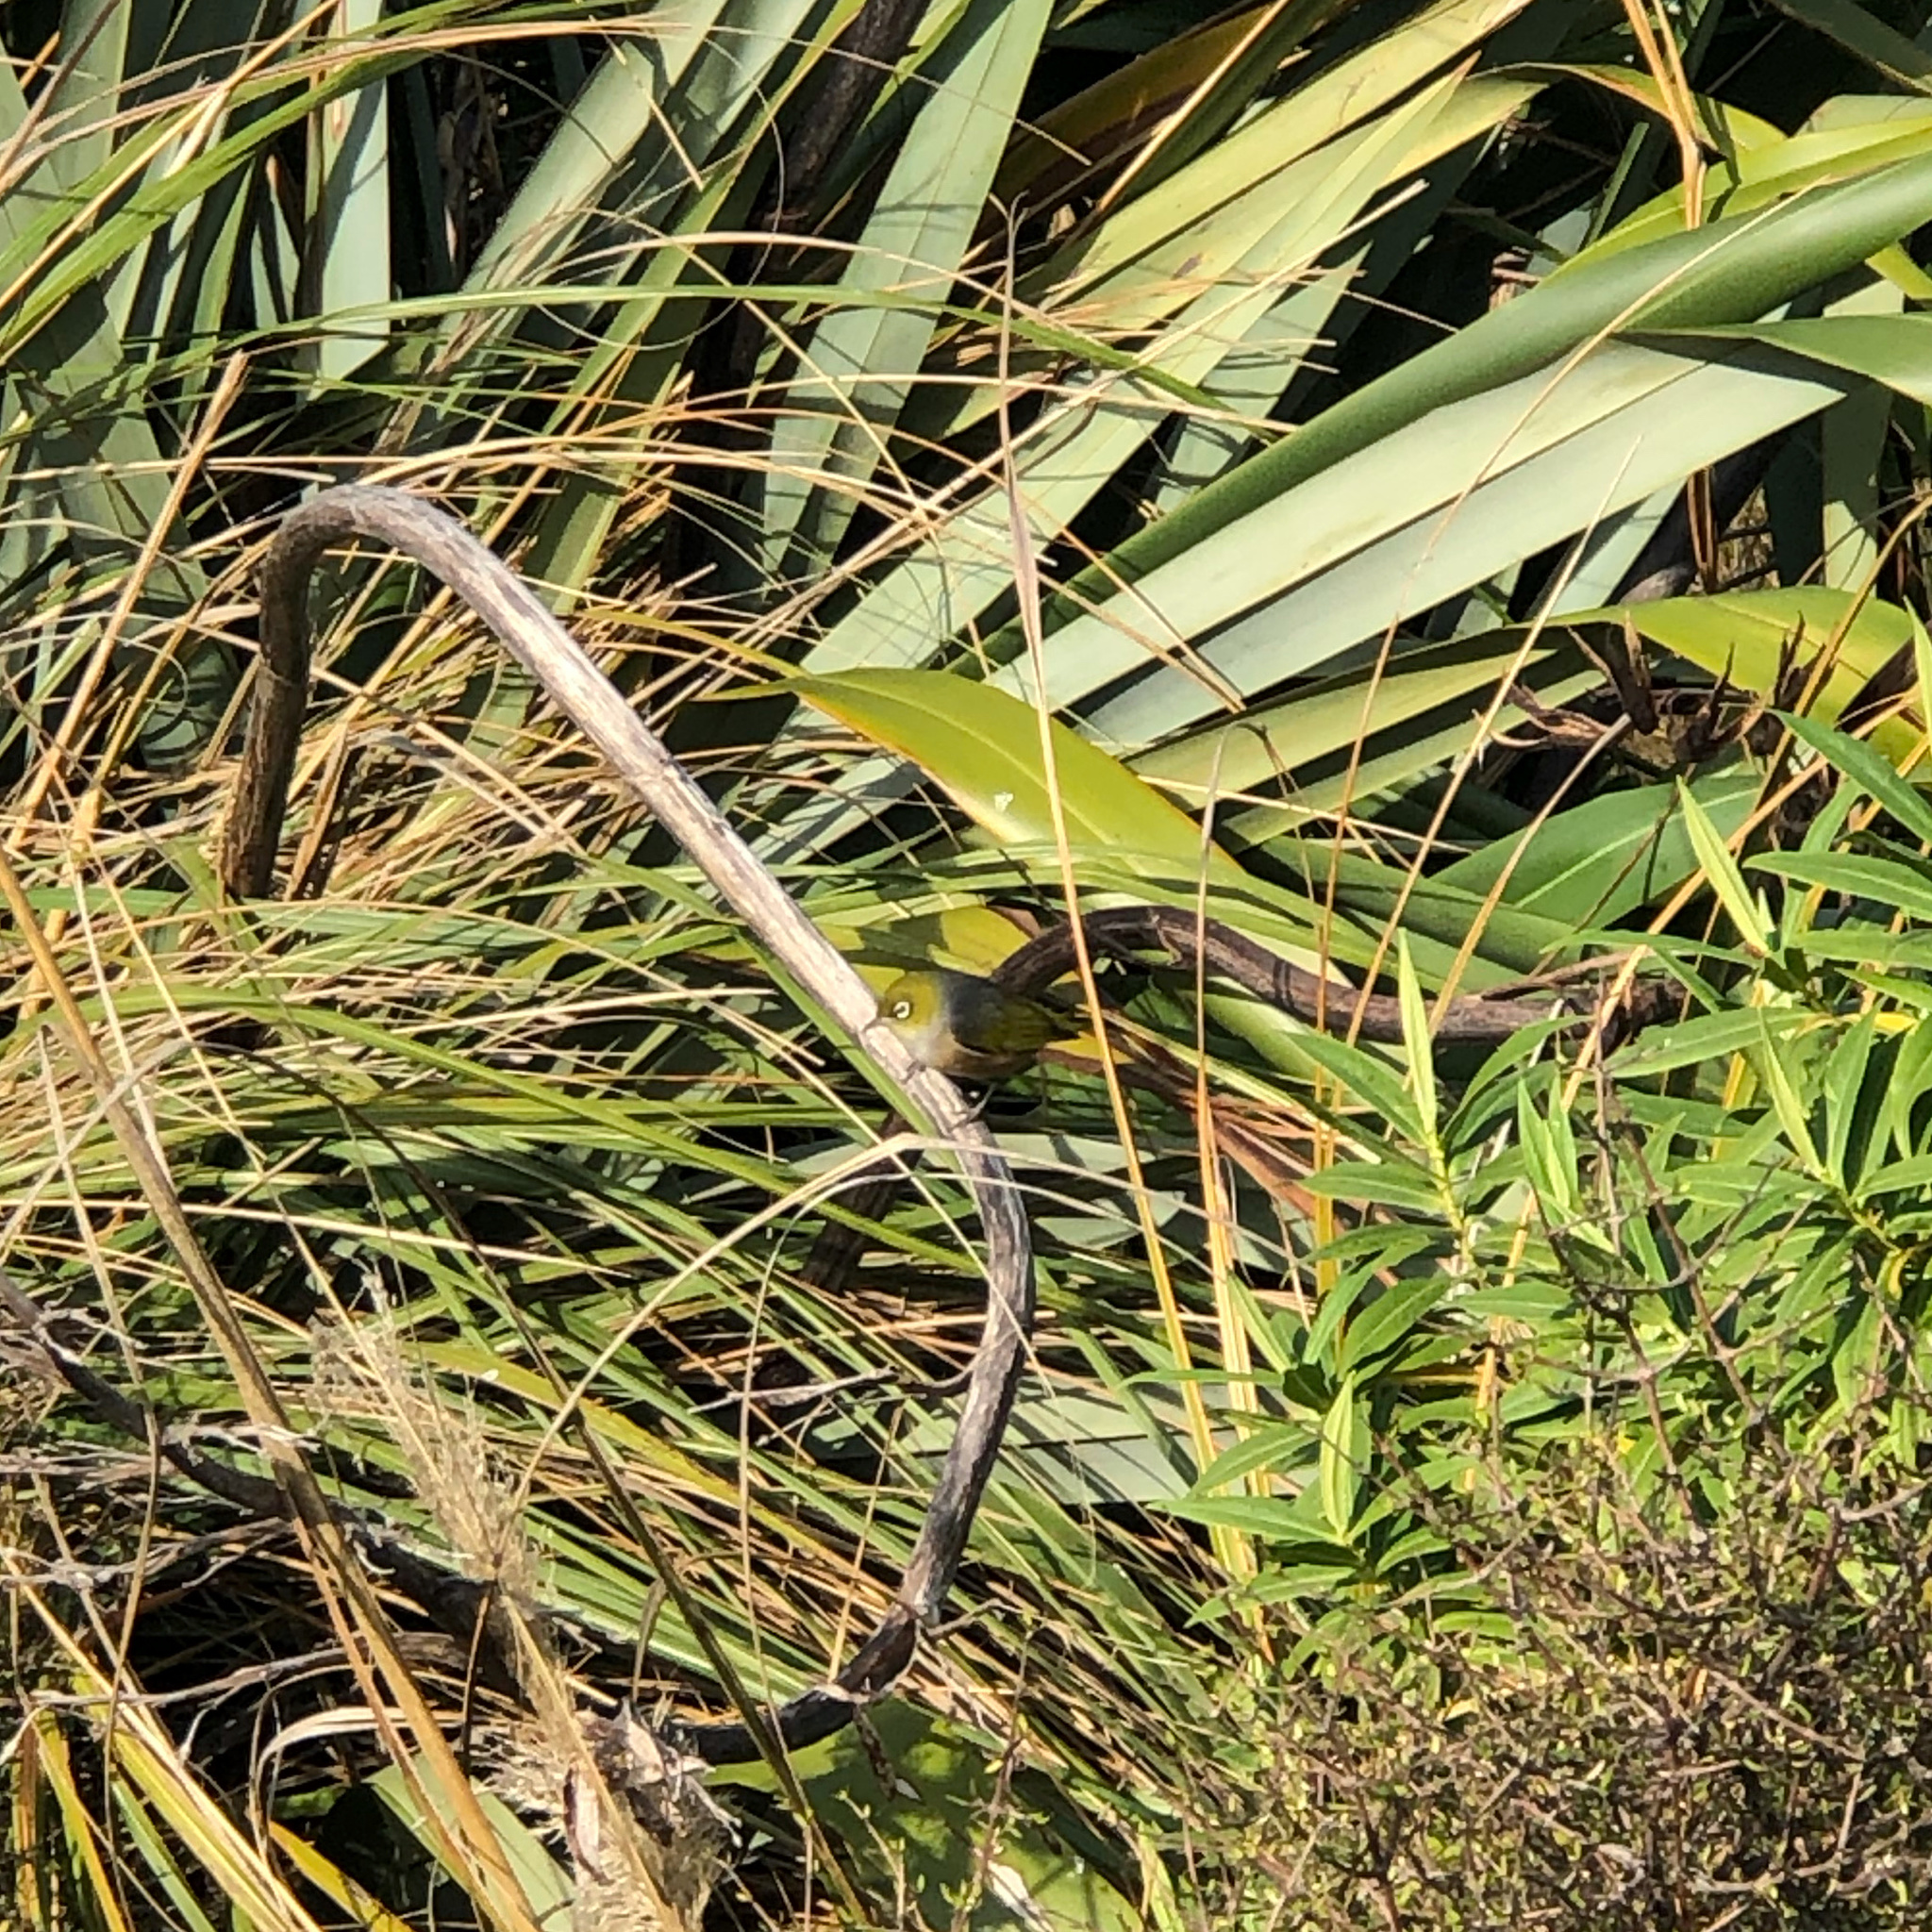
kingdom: Animalia
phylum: Chordata
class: Aves
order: Passeriformes
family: Zosteropidae
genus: Zosterops
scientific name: Zosterops lateralis
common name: Silvereye
